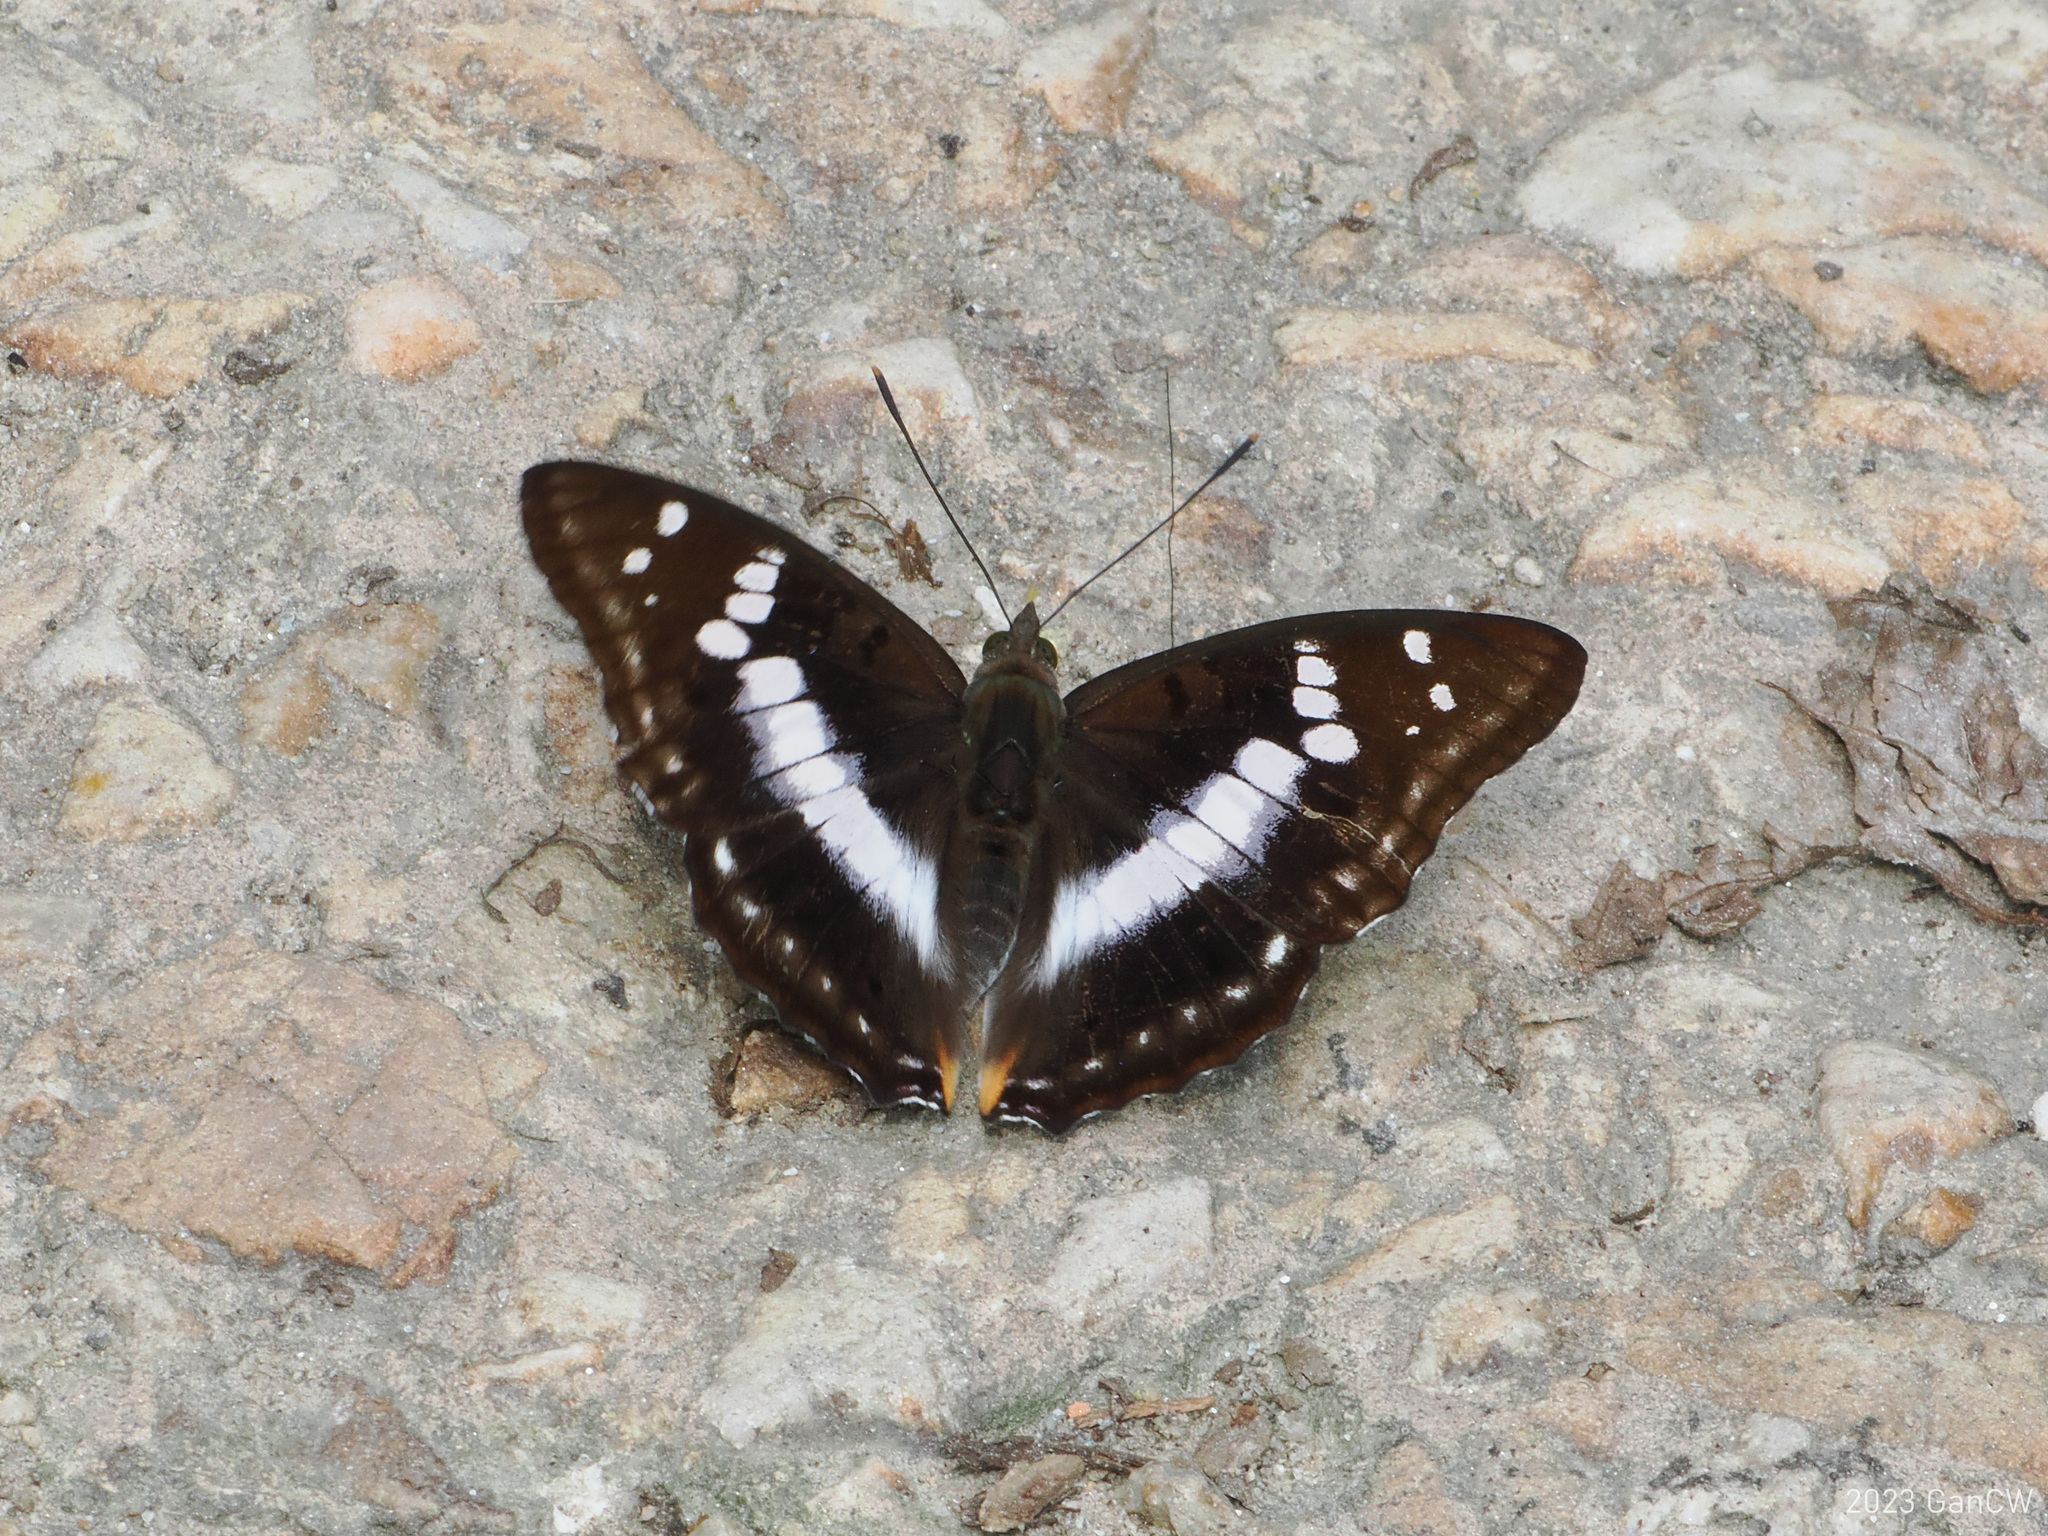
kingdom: Animalia
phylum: Arthropoda
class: Insecta
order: Lepidoptera
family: Nymphalidae
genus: Apatura
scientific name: Apatura Mimathyma ambica
